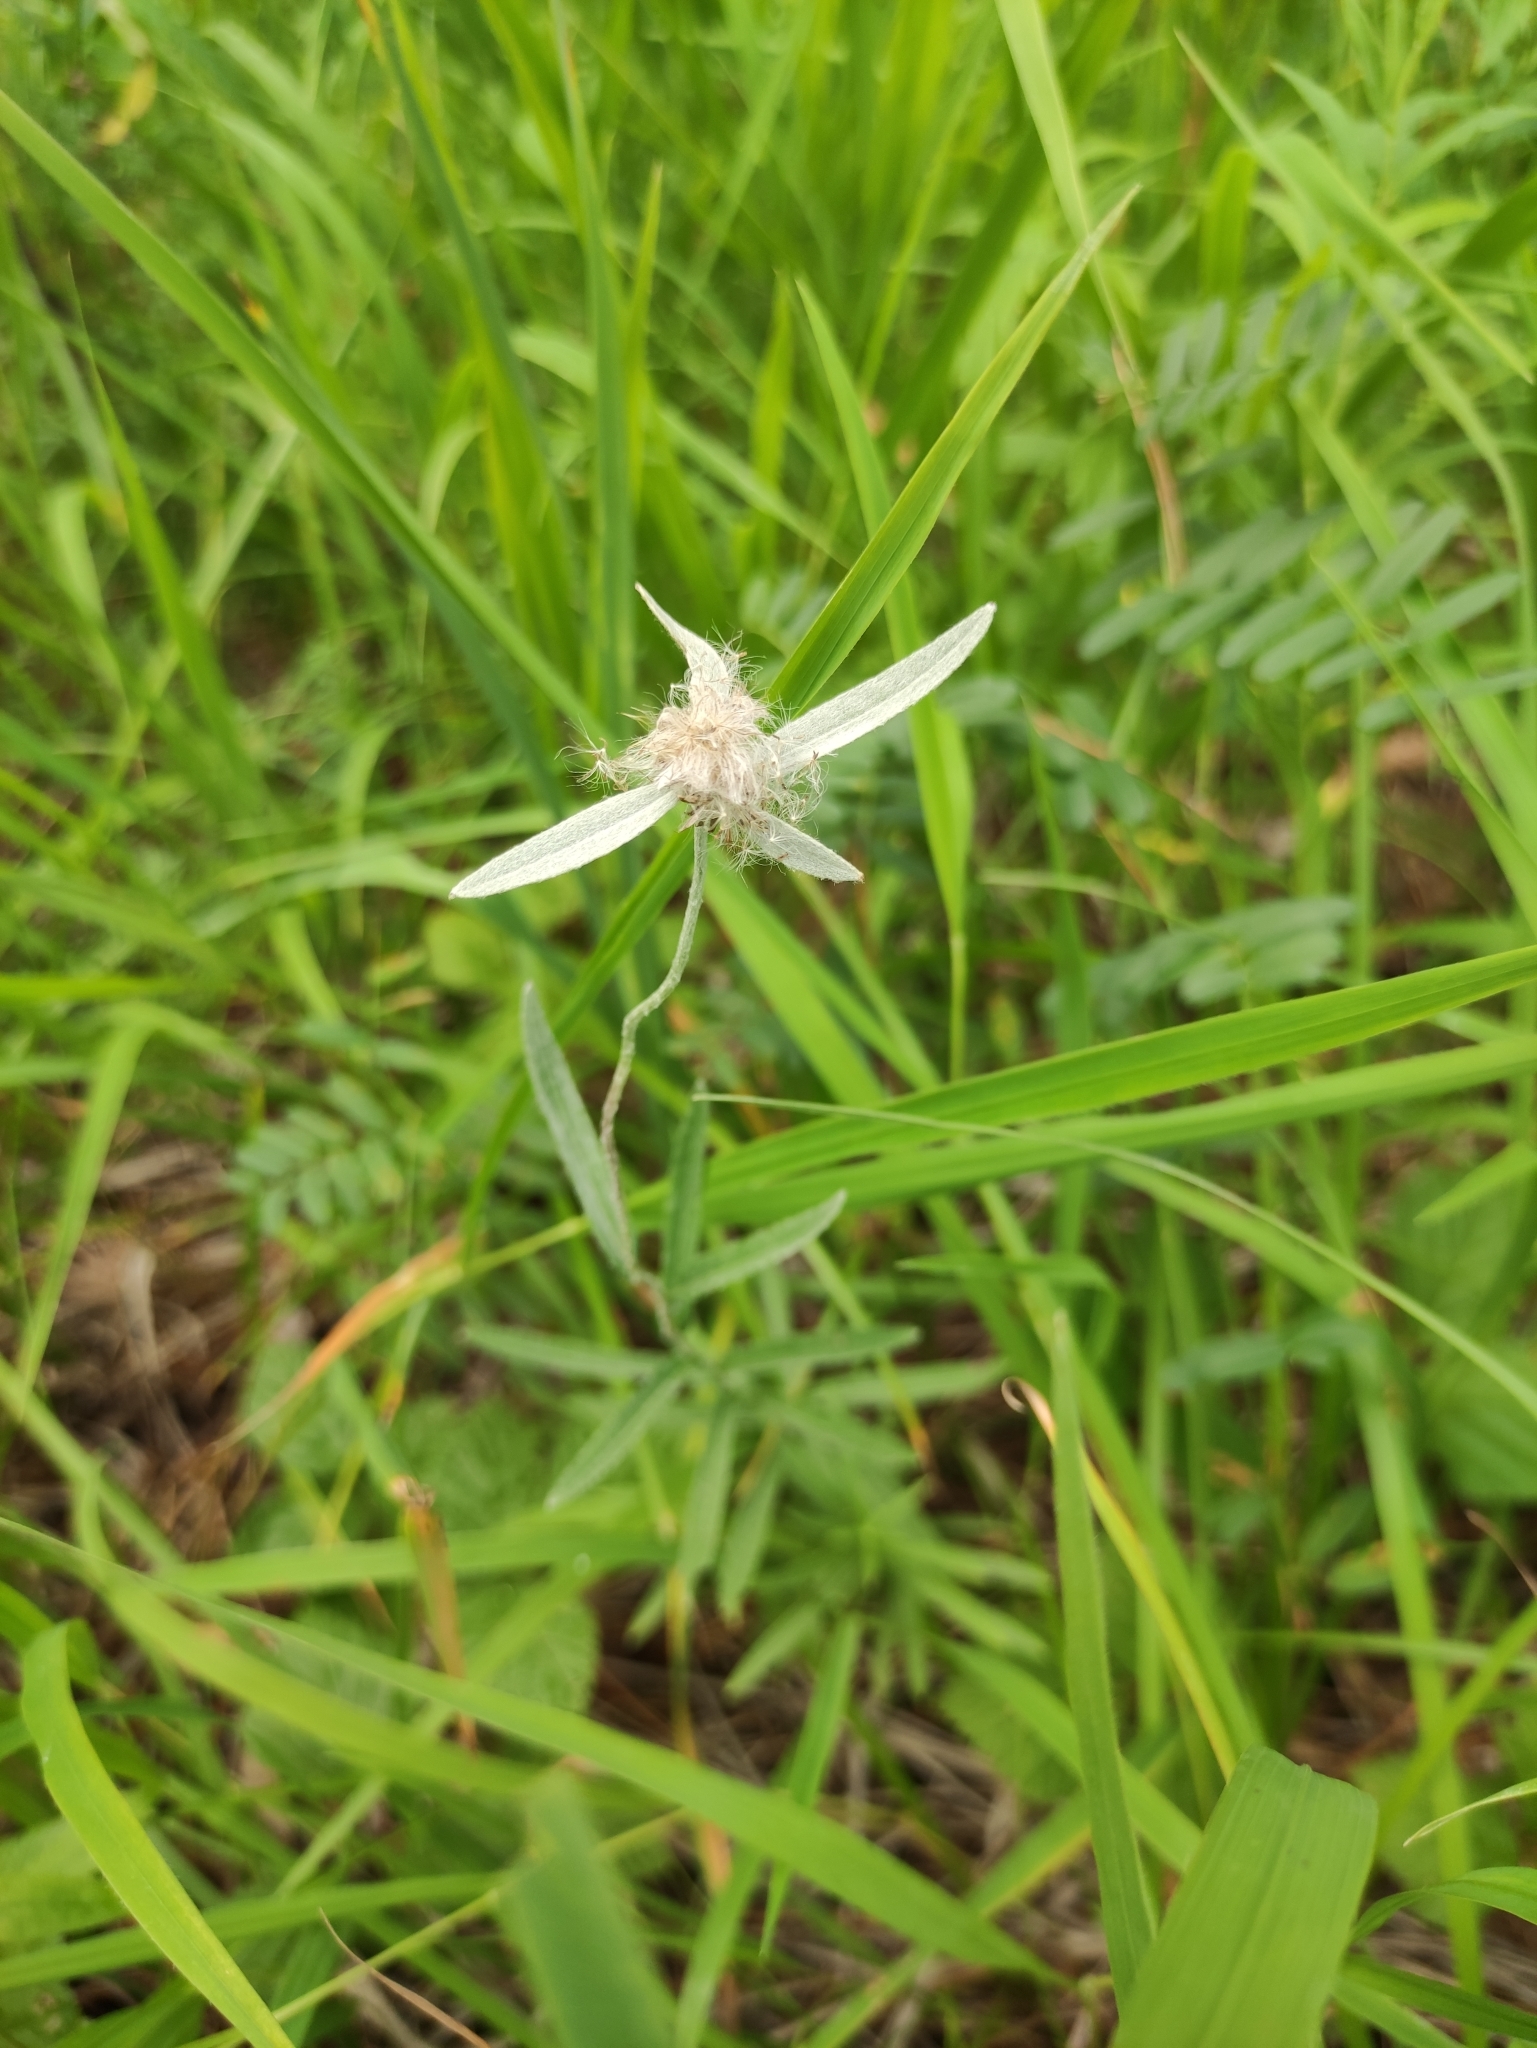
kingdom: Plantae
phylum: Tracheophyta
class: Magnoliopsida
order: Asterales
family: Asteraceae
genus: Leontopodium
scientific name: Leontopodium leontopodioides
